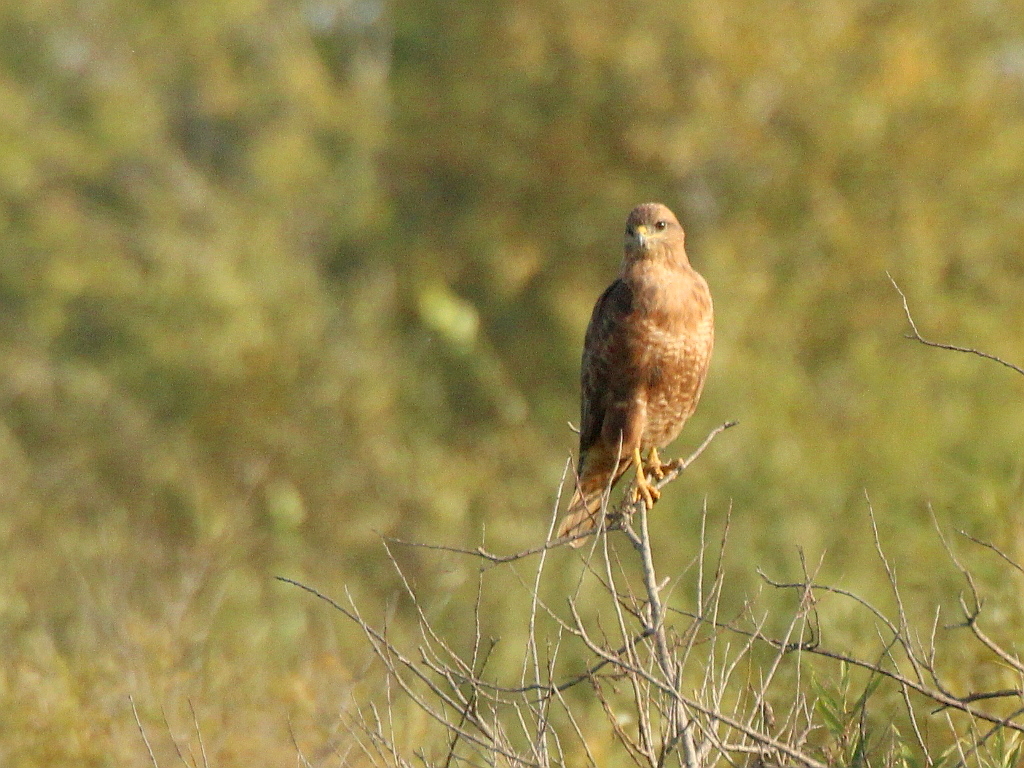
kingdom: Animalia
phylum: Chordata
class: Aves
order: Accipitriformes
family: Accipitridae
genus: Buteo
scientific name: Buteo buteo
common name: Common buzzard
